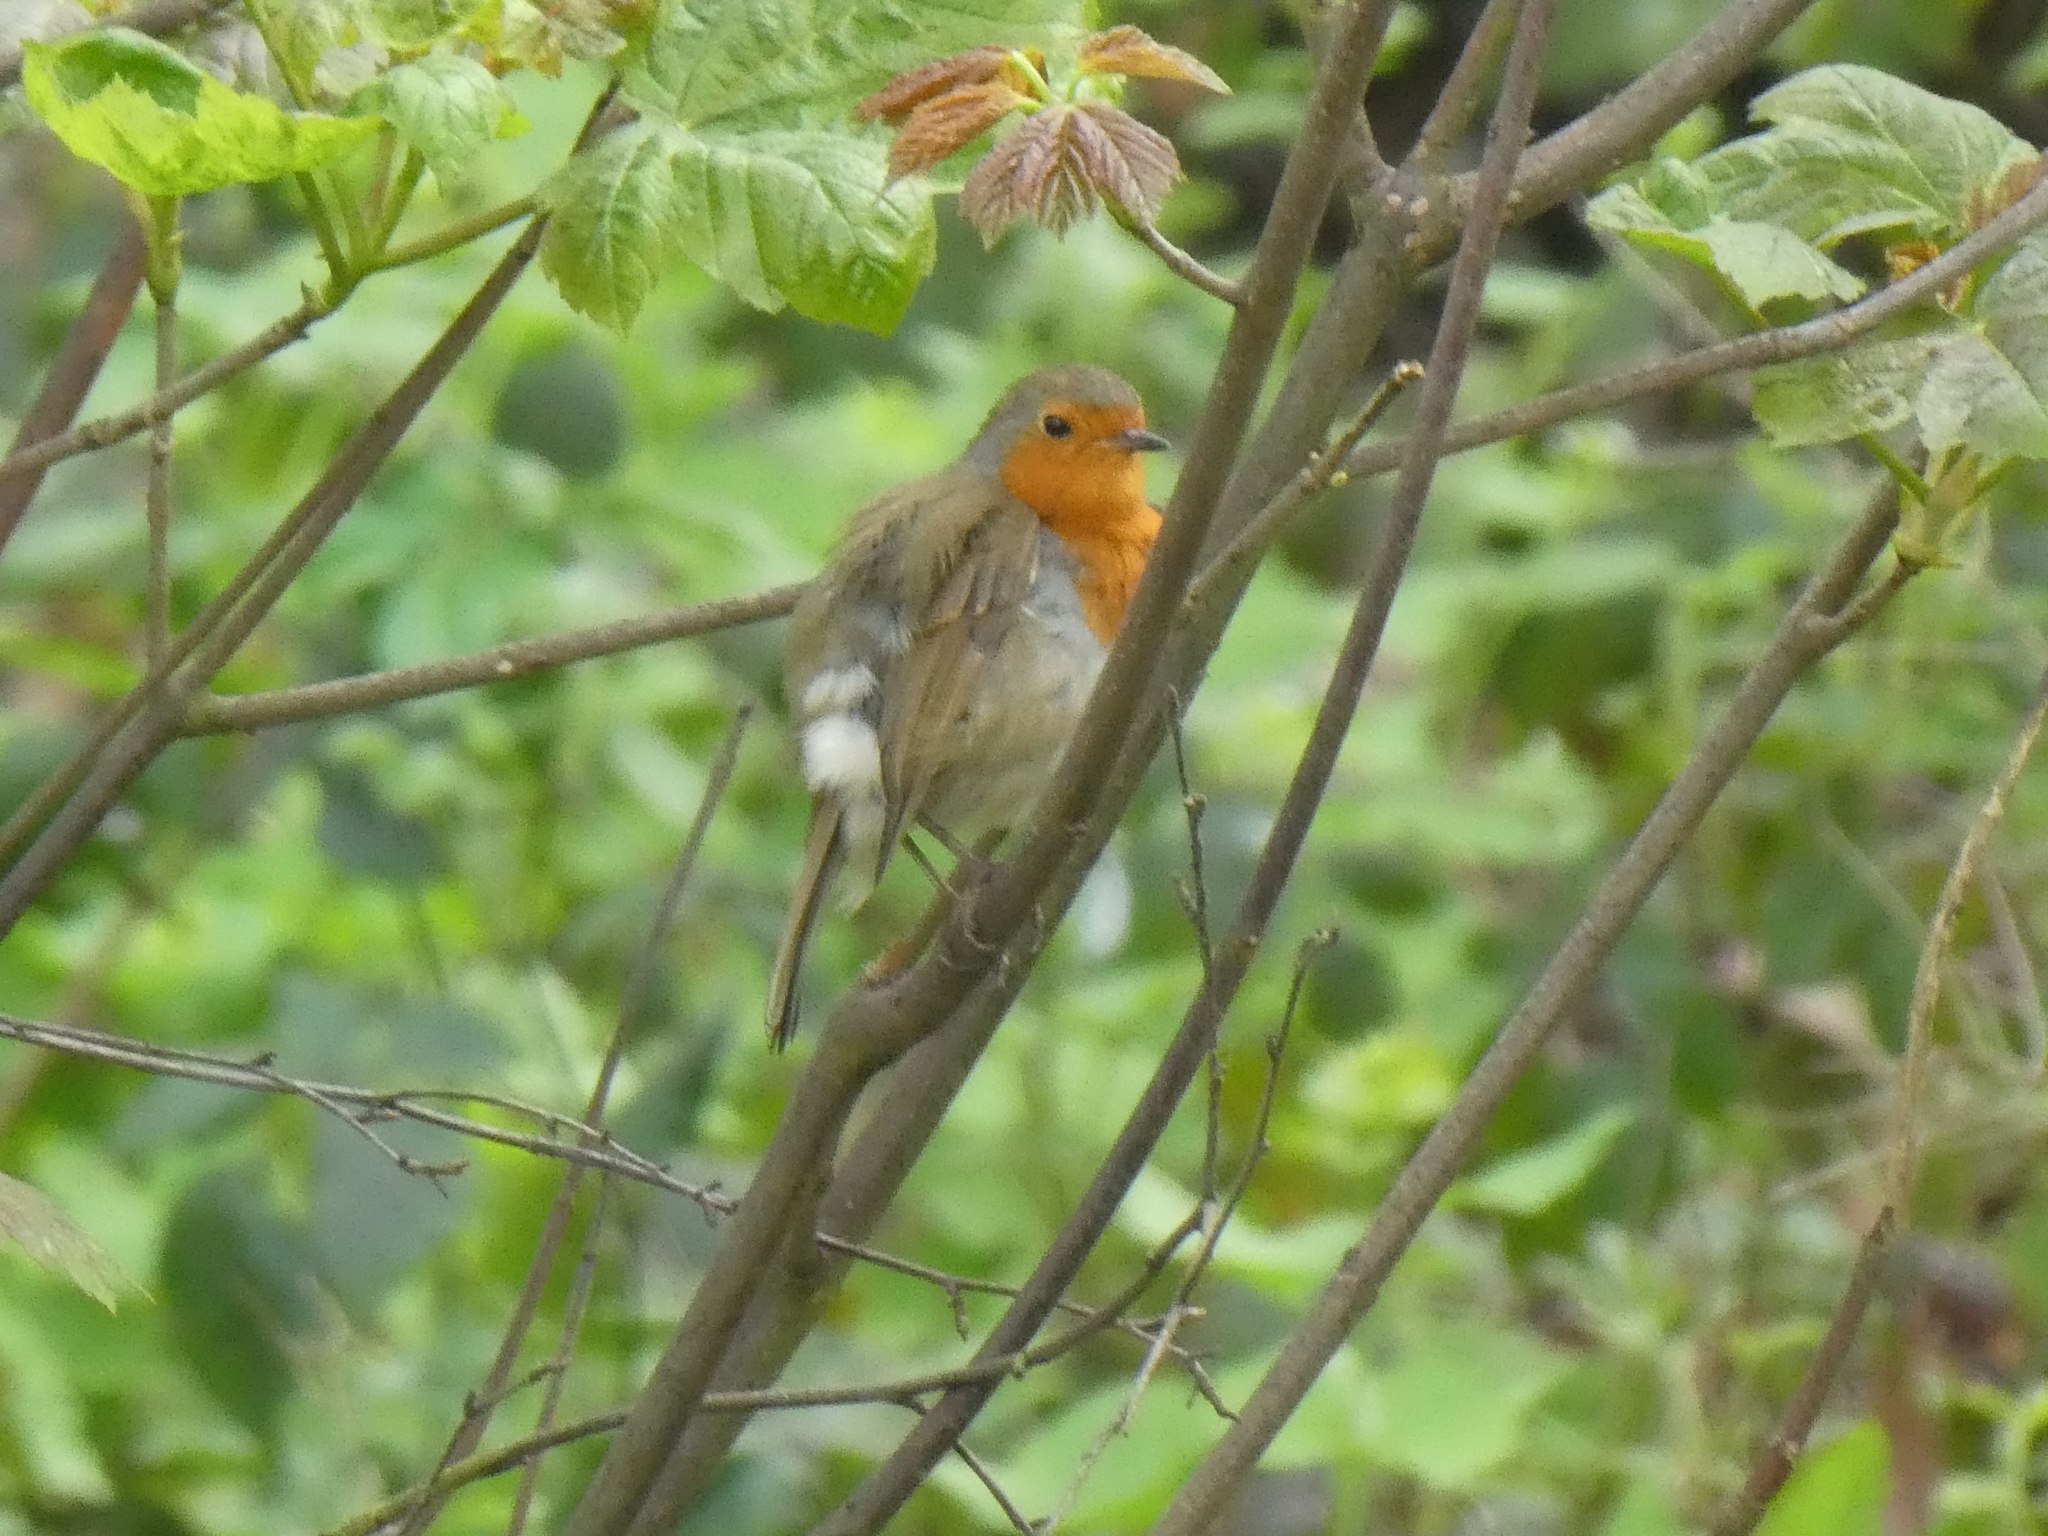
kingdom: Animalia
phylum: Chordata
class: Aves
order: Passeriformes
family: Muscicapidae
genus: Erithacus
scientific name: Erithacus rubecula
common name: European robin
